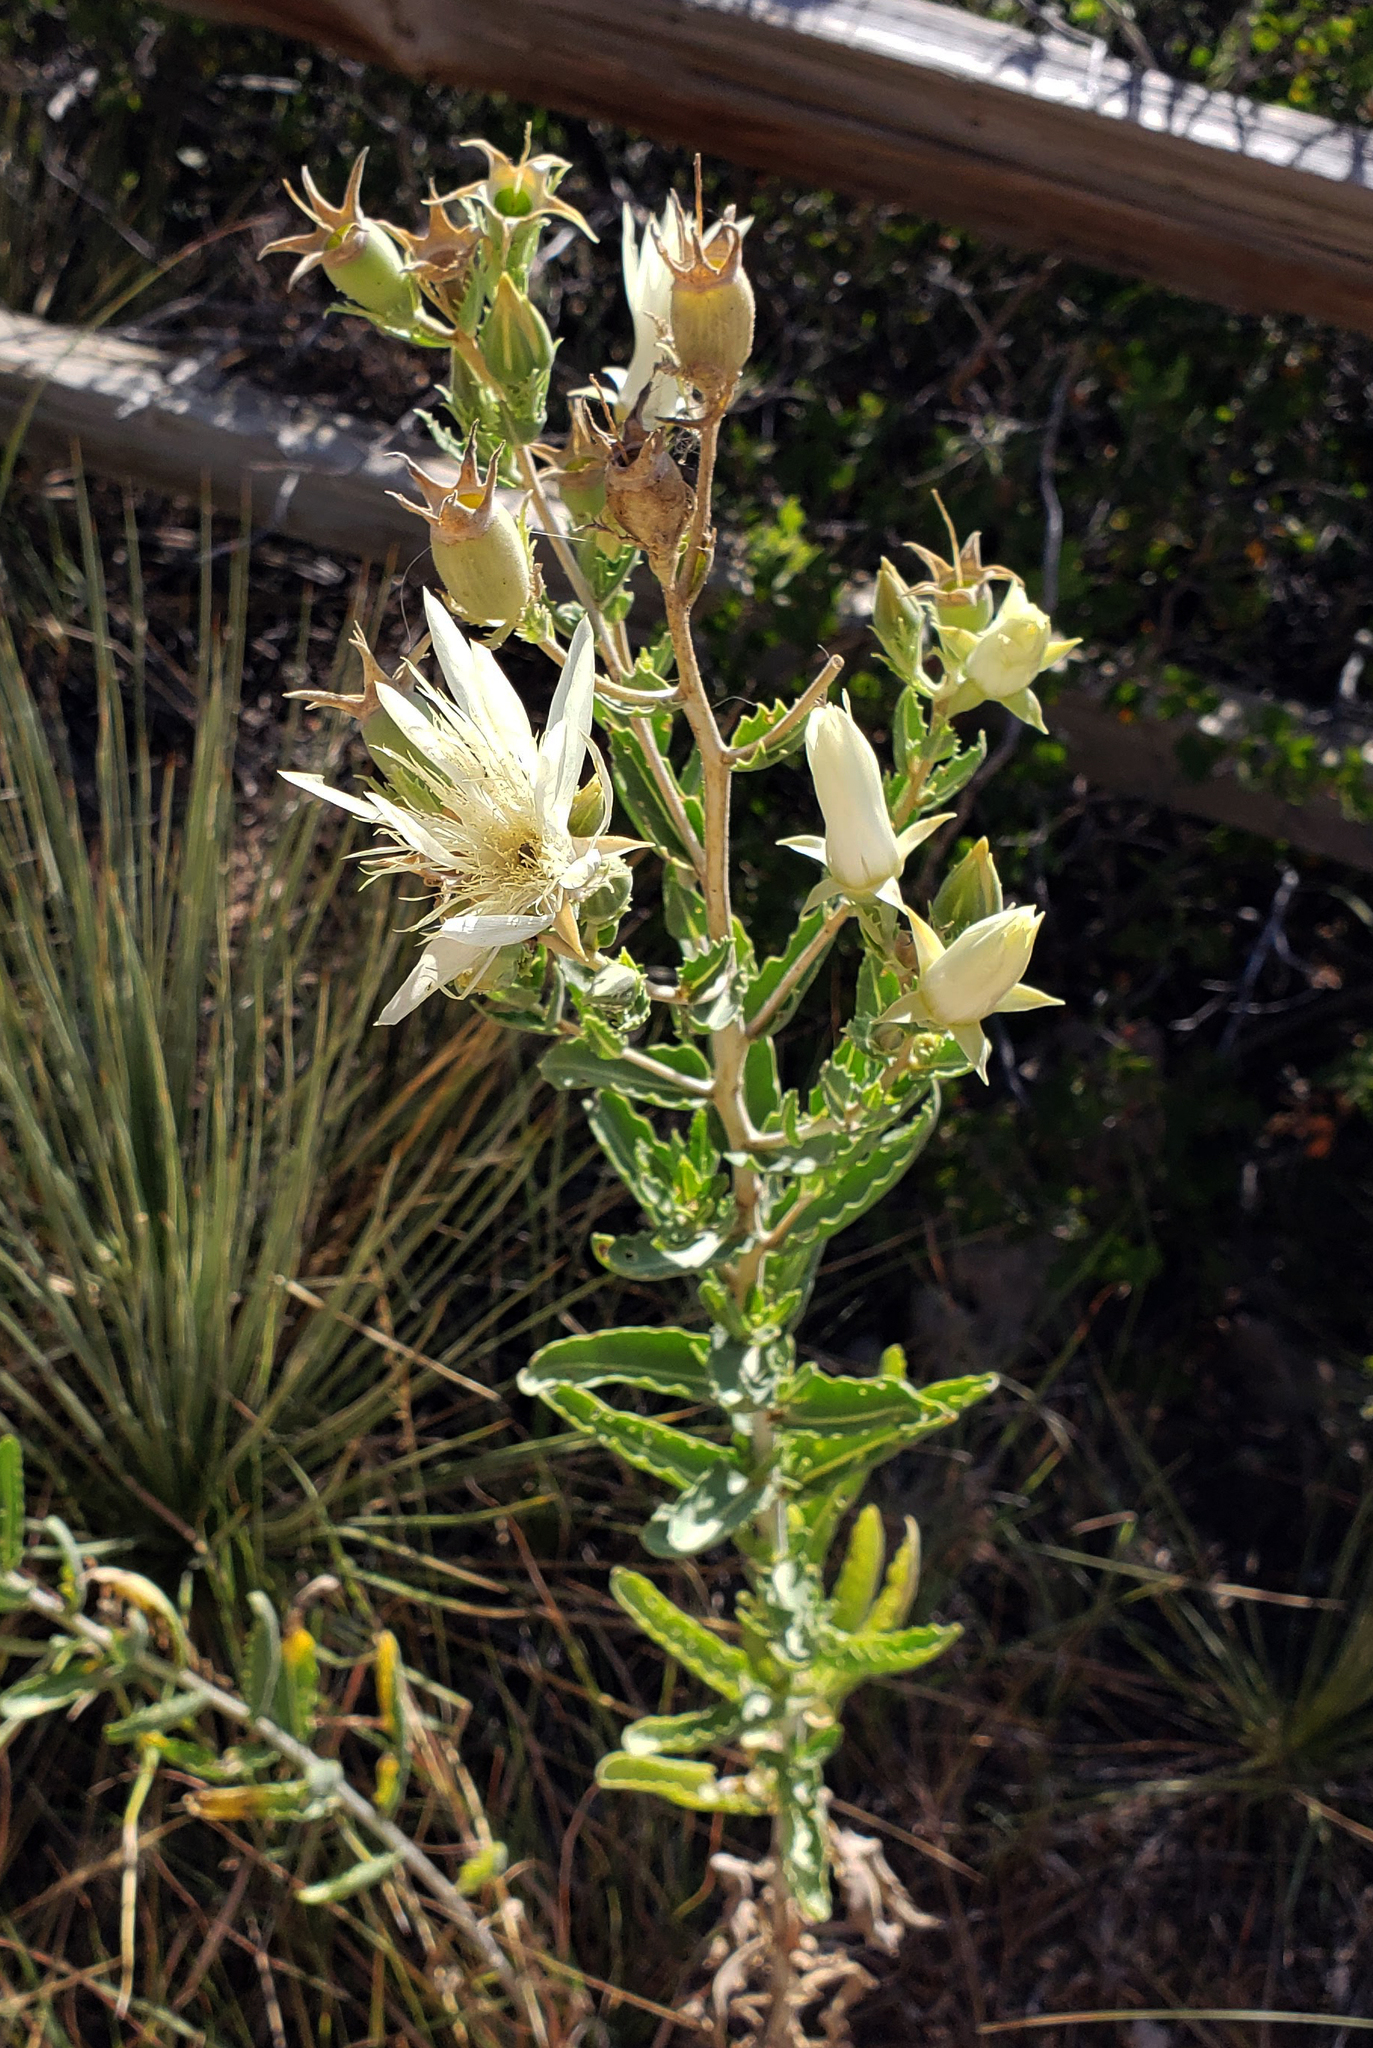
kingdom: Plantae
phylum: Tracheophyta
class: Magnoliopsida
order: Cornales
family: Loasaceae
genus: Mentzelia
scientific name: Mentzelia nuda
